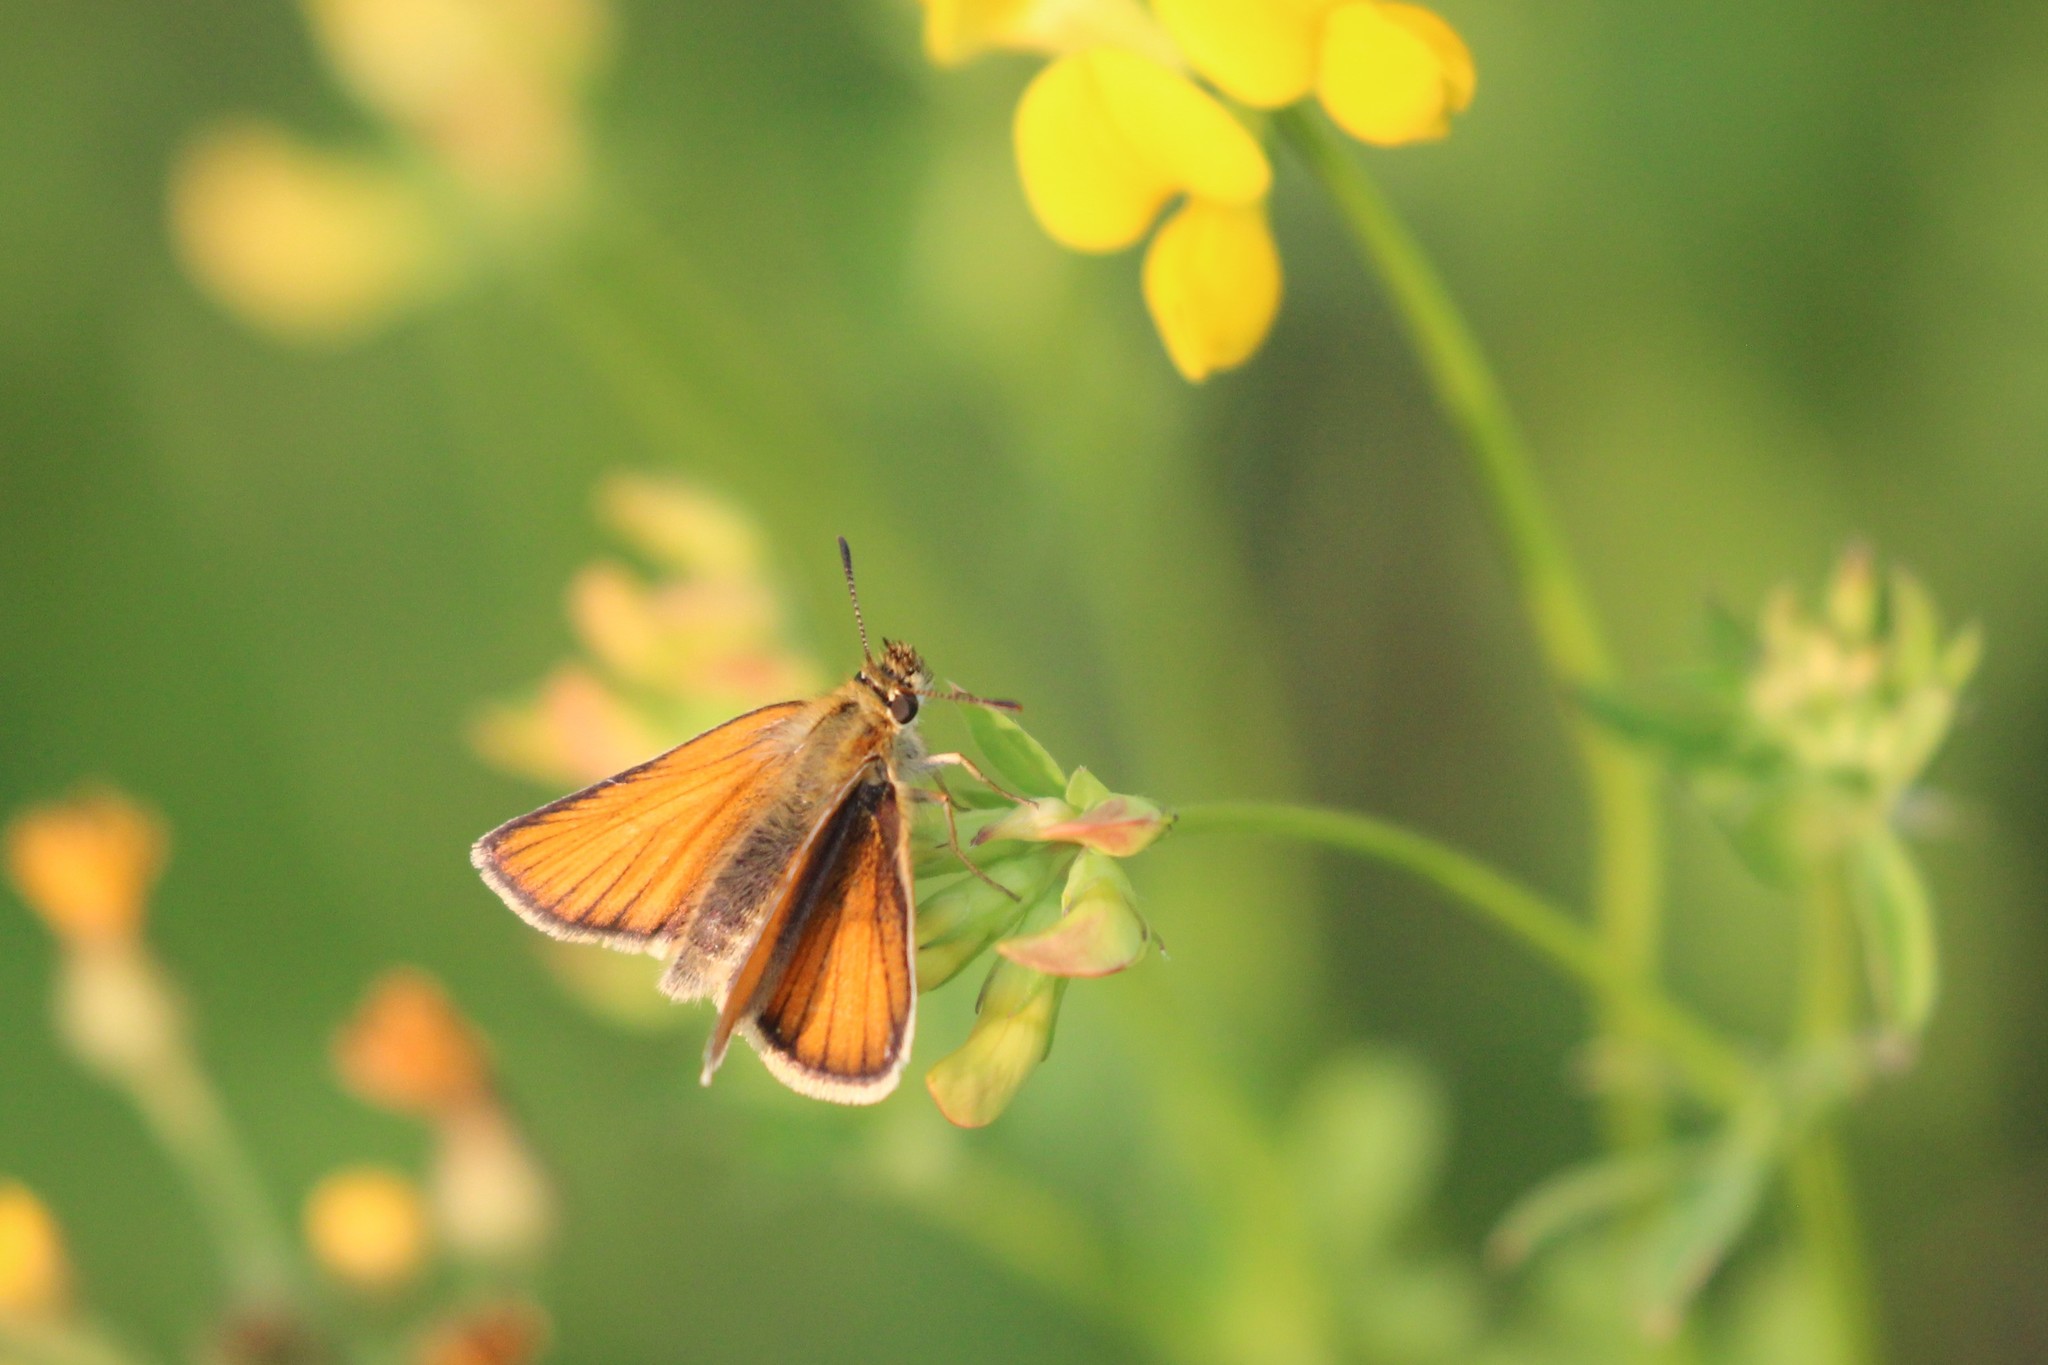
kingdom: Animalia
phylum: Arthropoda
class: Insecta
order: Lepidoptera
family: Hesperiidae
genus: Thymelicus
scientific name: Thymelicus lineola
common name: Essex skipper
